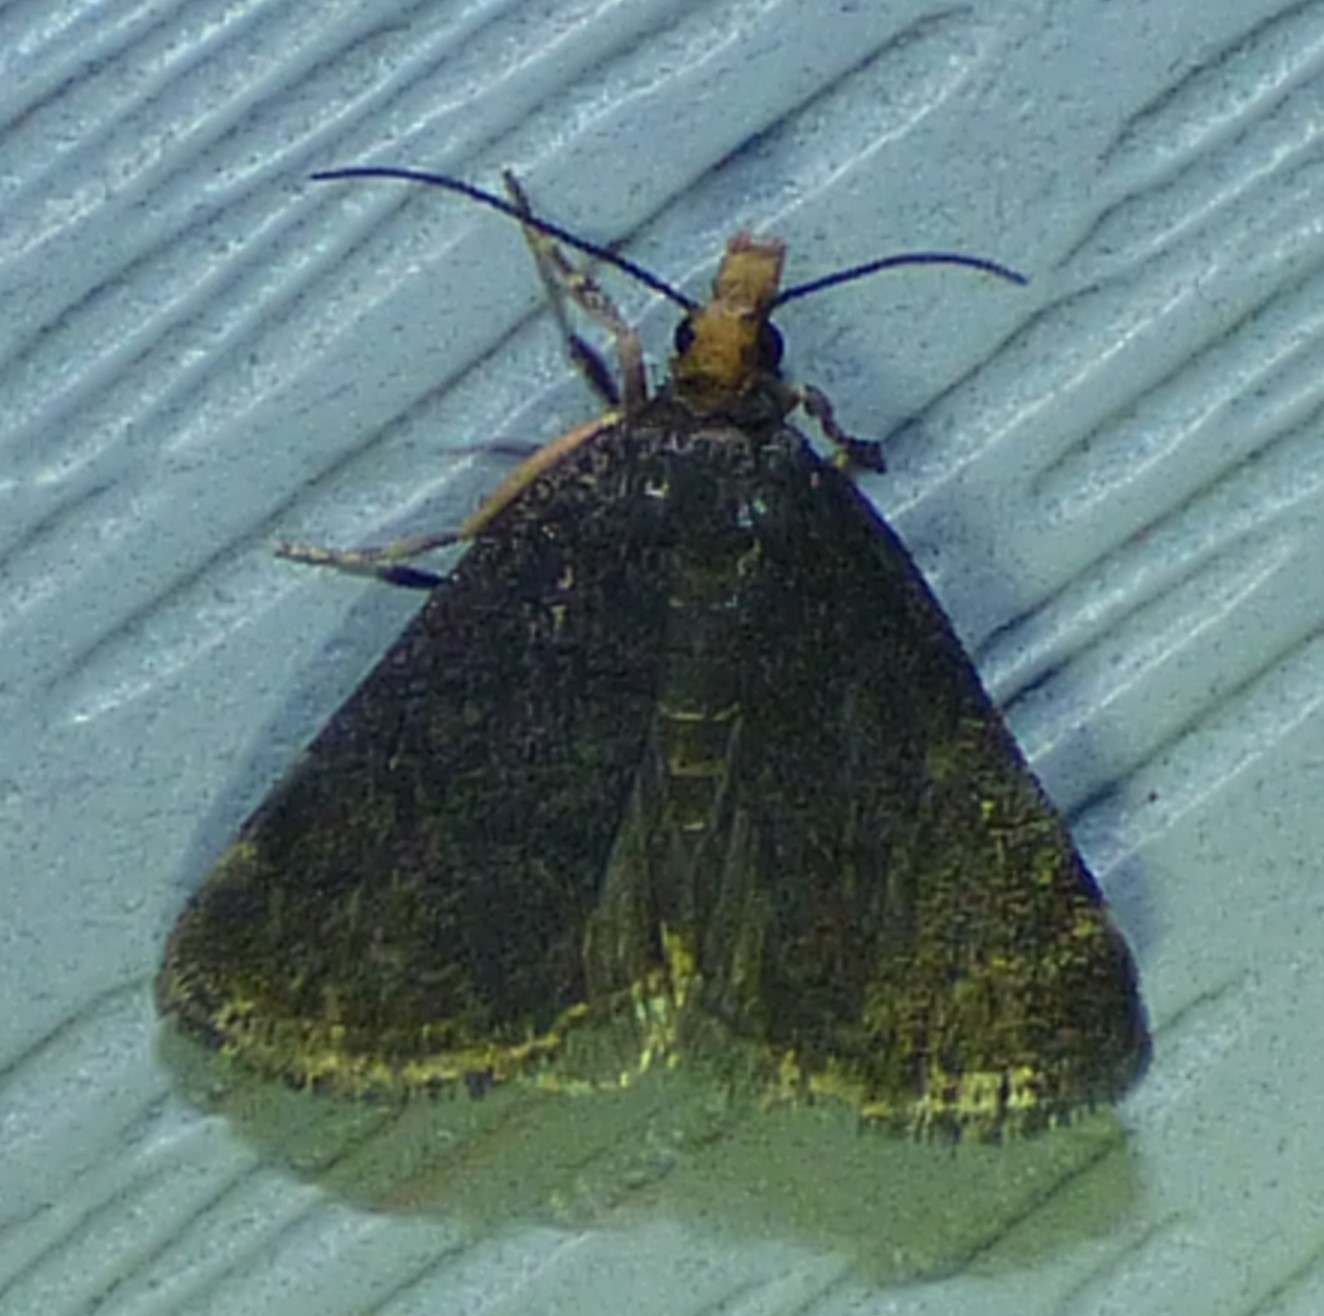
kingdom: Animalia
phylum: Arthropoda
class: Insecta
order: Lepidoptera
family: Crambidae
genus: Pyrausta
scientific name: Pyrausta merrickalis
